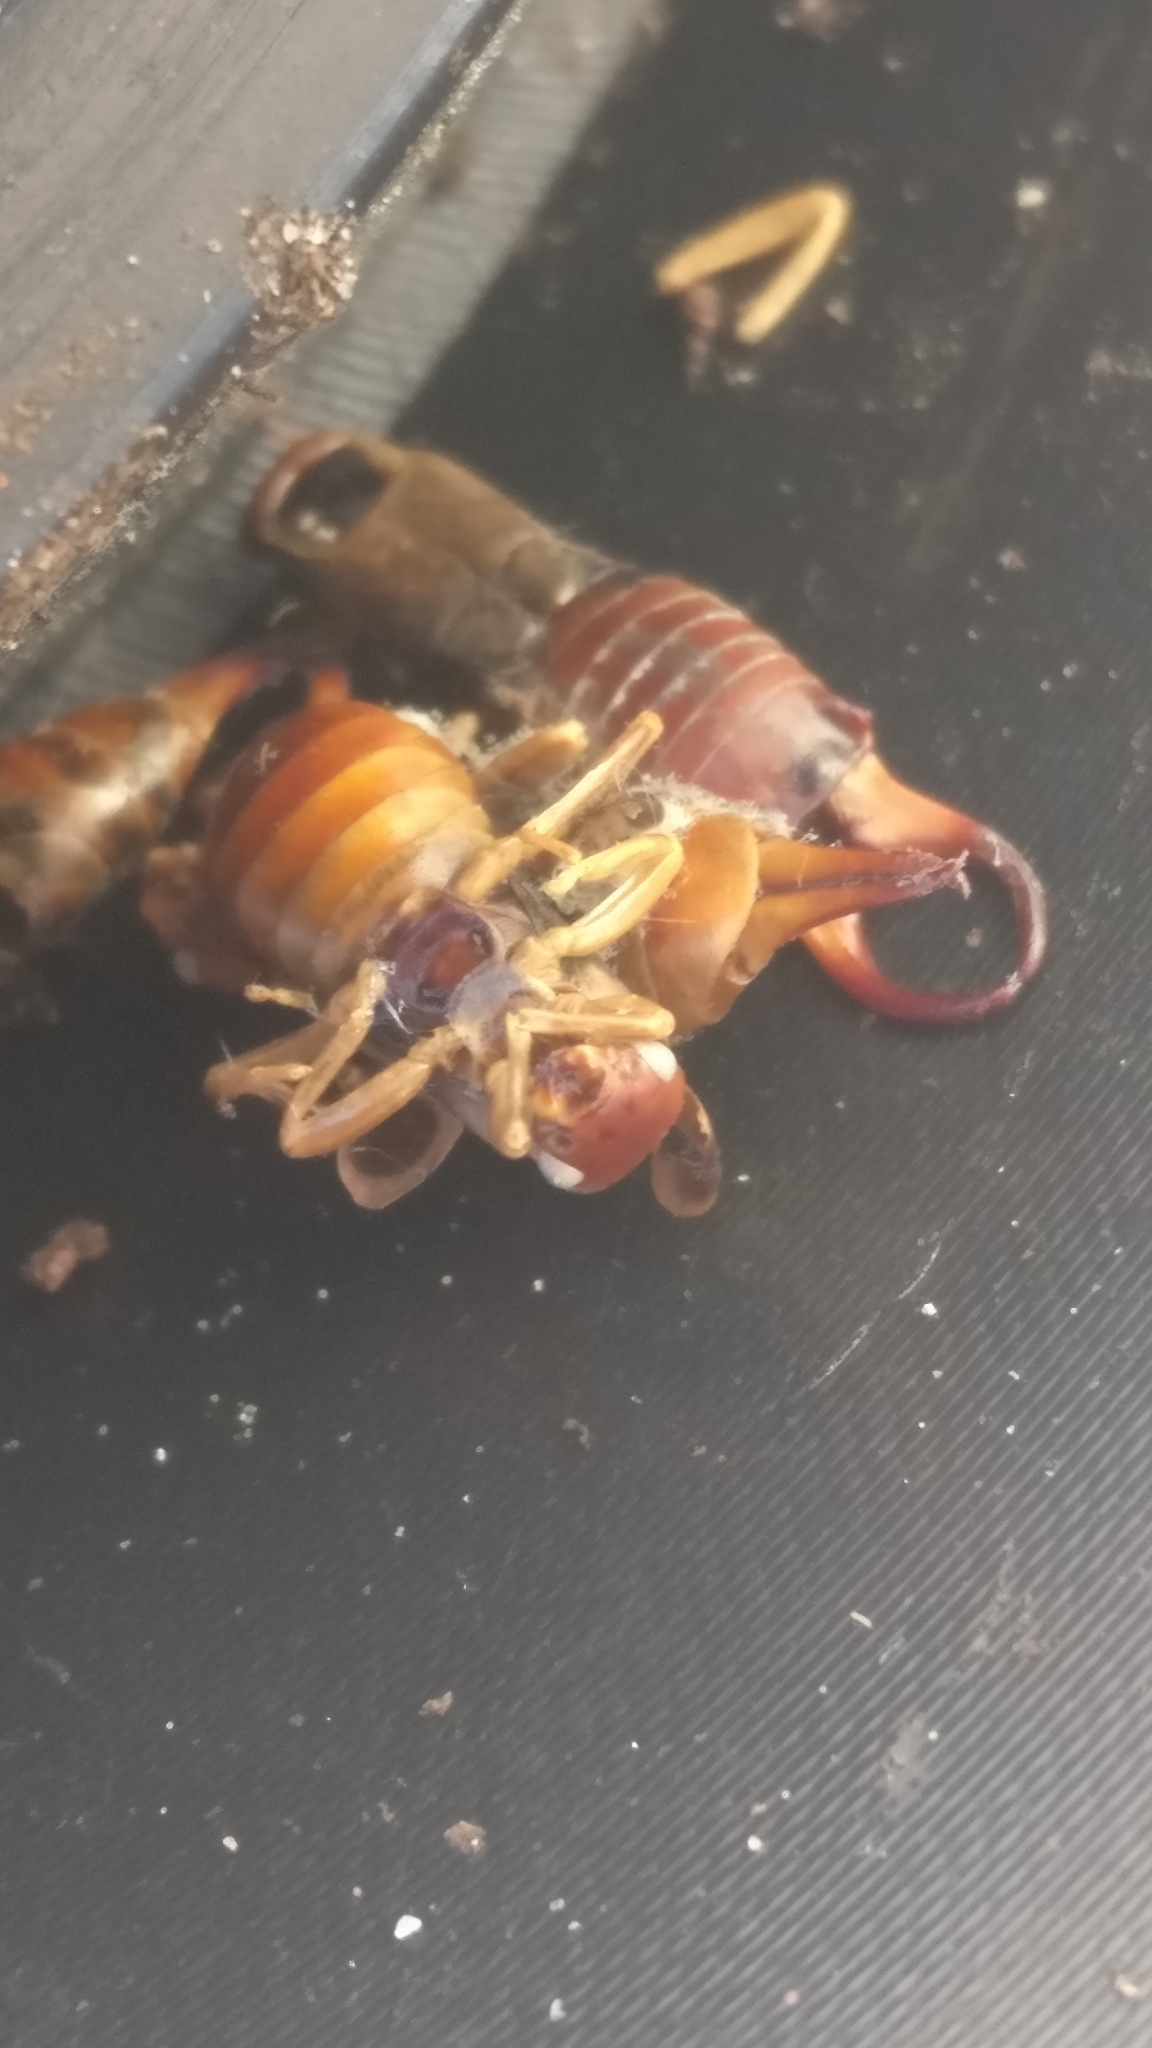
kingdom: Animalia
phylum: Arthropoda
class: Insecta
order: Dermaptera
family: Forficulidae
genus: Forficula
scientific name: Forficula
